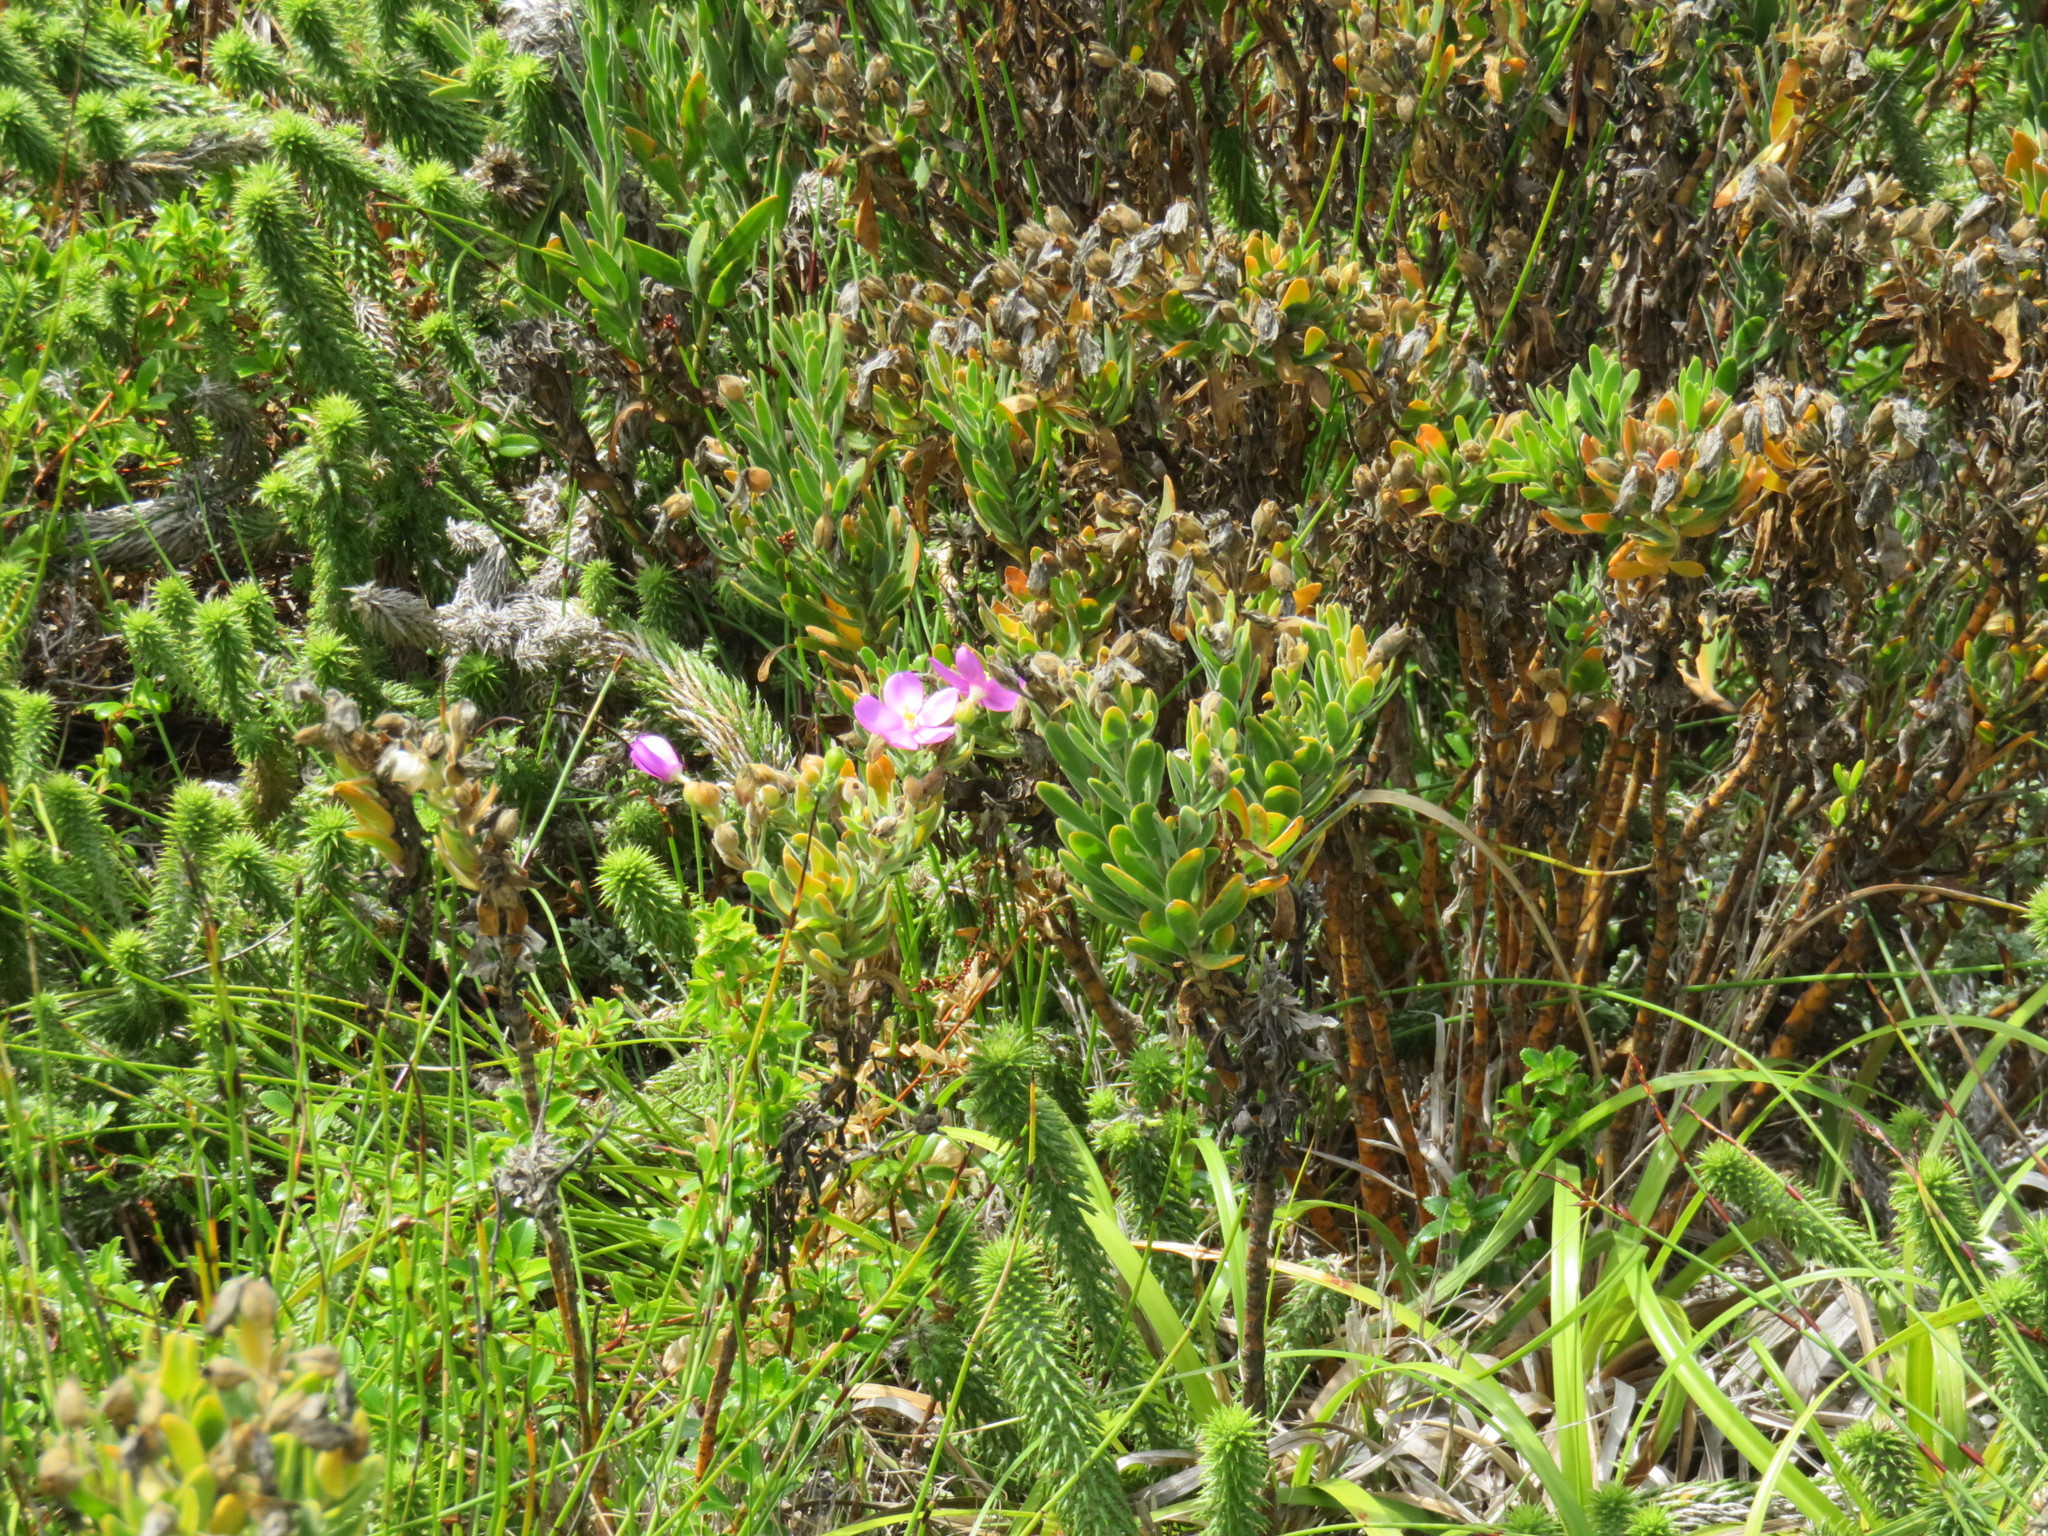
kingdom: Plantae
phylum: Tracheophyta
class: Magnoliopsida
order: Gentianales
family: Gentianaceae
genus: Orphium
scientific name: Orphium frutescens
